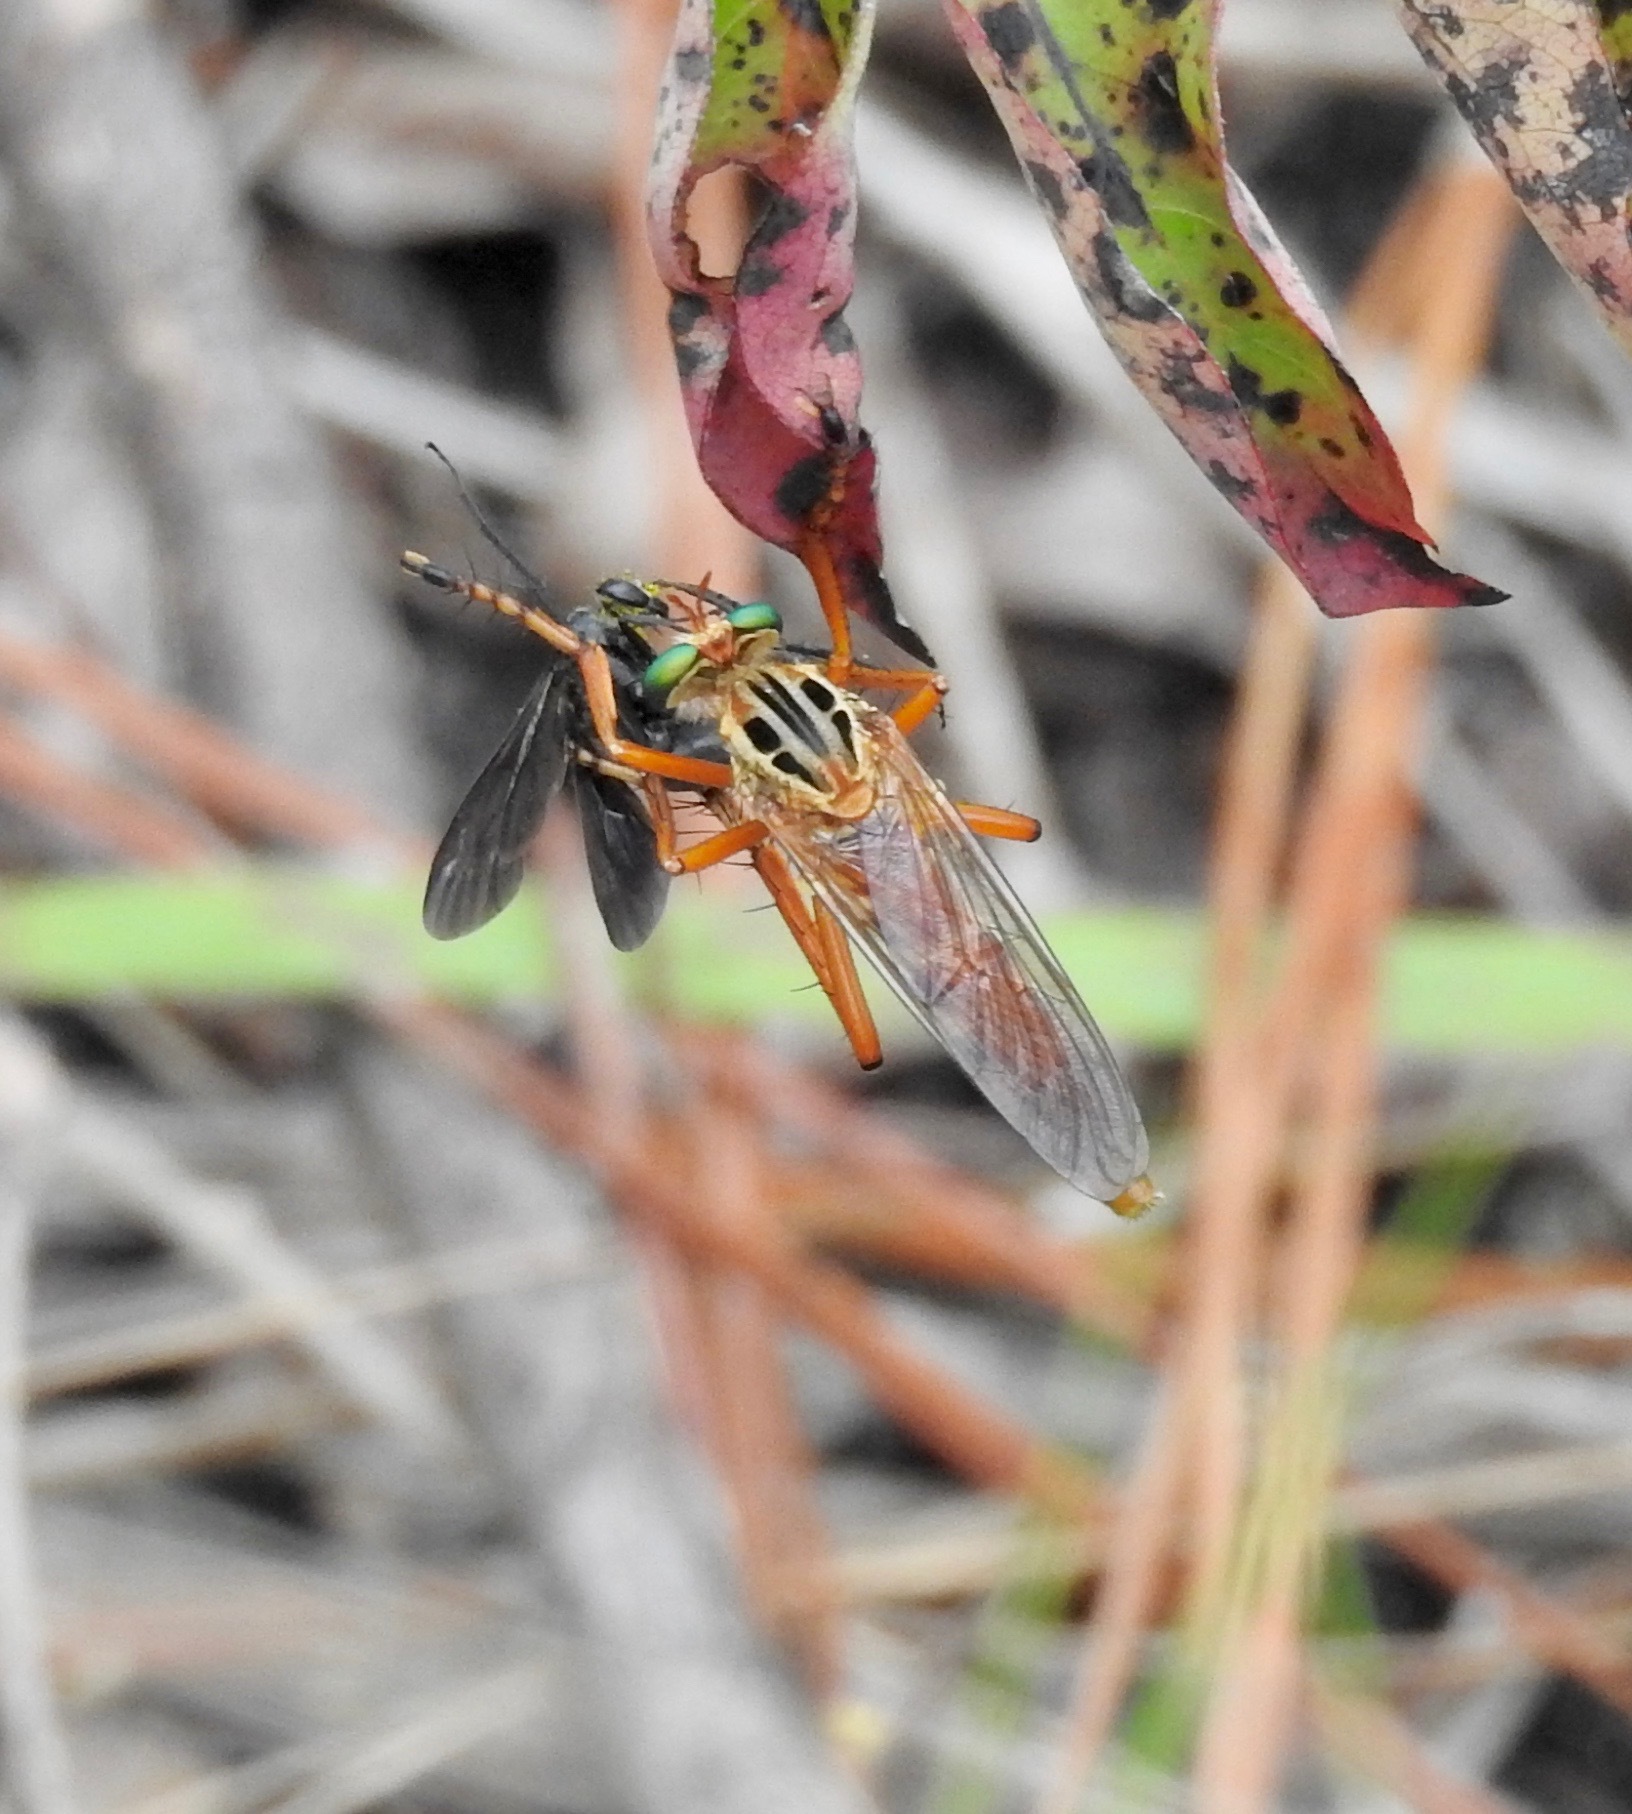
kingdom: Animalia
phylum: Arthropoda
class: Insecta
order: Diptera
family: Asilidae
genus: Diogmites
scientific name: Diogmites esuriens
